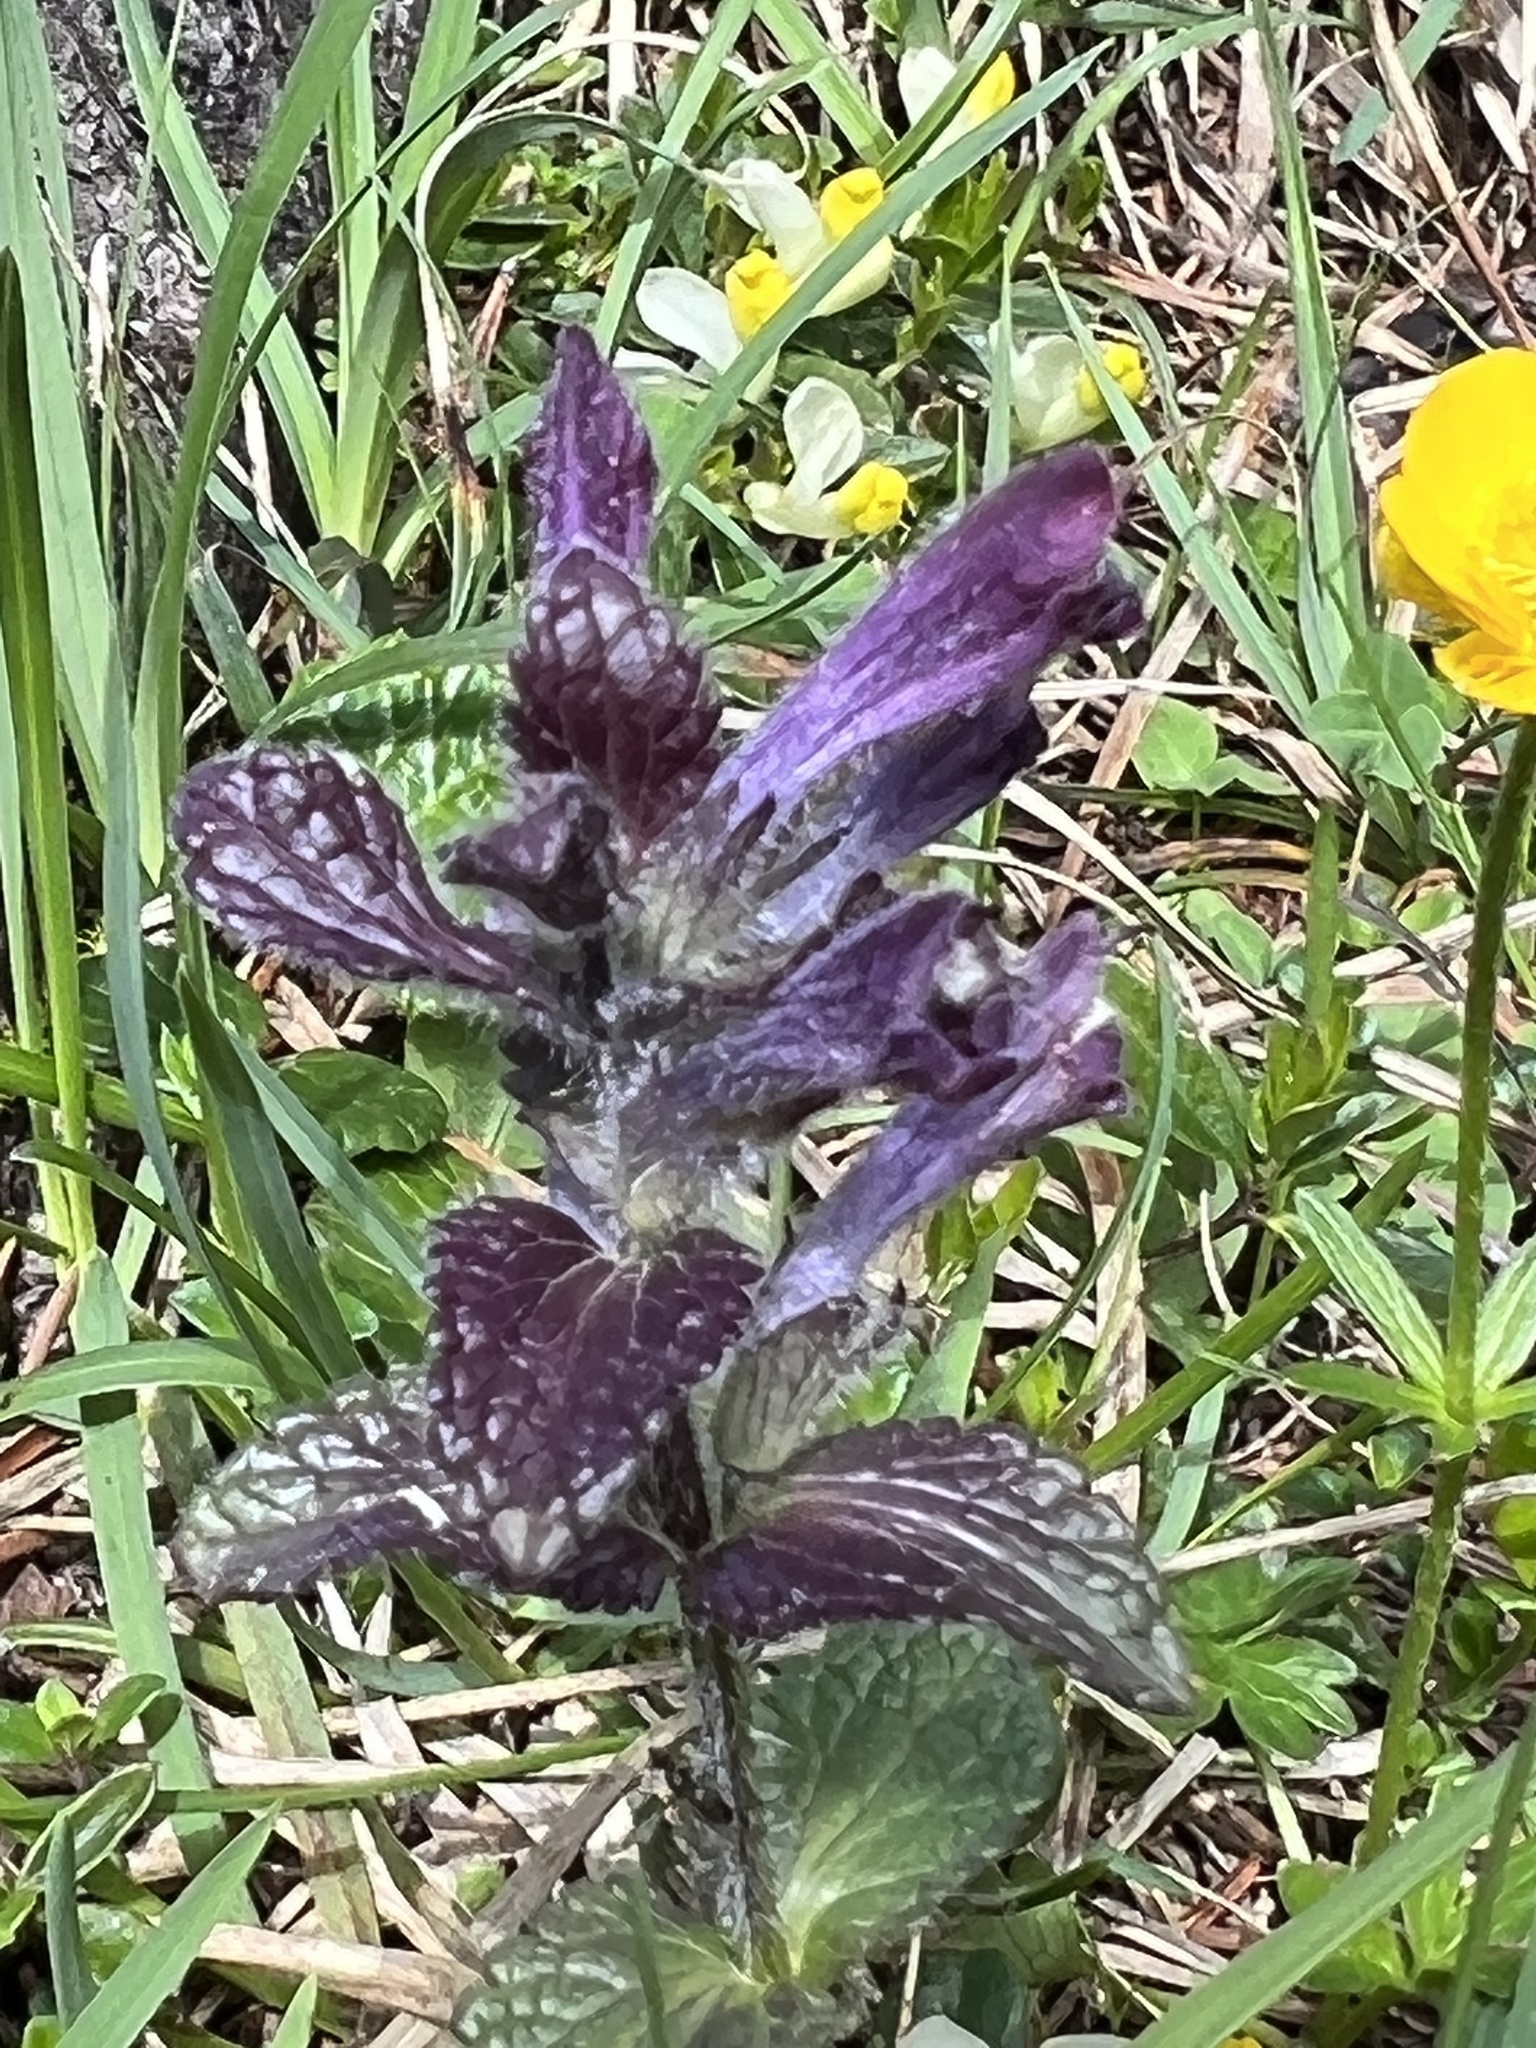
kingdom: Plantae
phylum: Tracheophyta
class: Magnoliopsida
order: Lamiales
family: Orobanchaceae
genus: Bartsia
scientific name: Bartsia alpina
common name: Alpine bartsia
